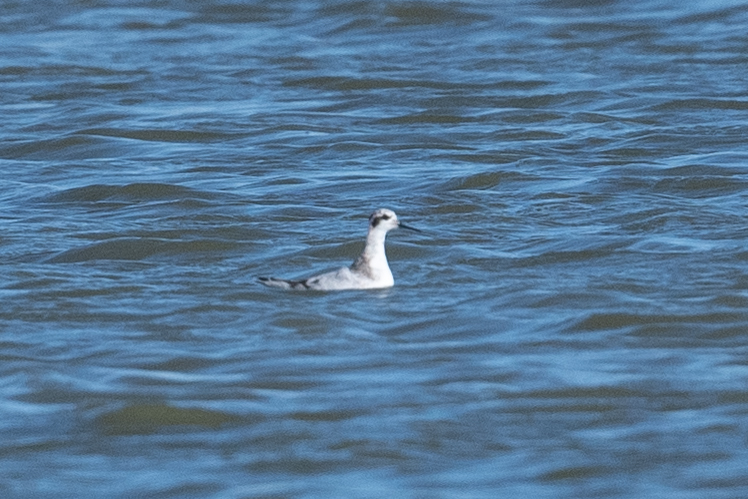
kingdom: Animalia
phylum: Chordata
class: Aves
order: Charadriiformes
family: Scolopacidae
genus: Phalaropus
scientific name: Phalaropus lobatus
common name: Red-necked phalarope
